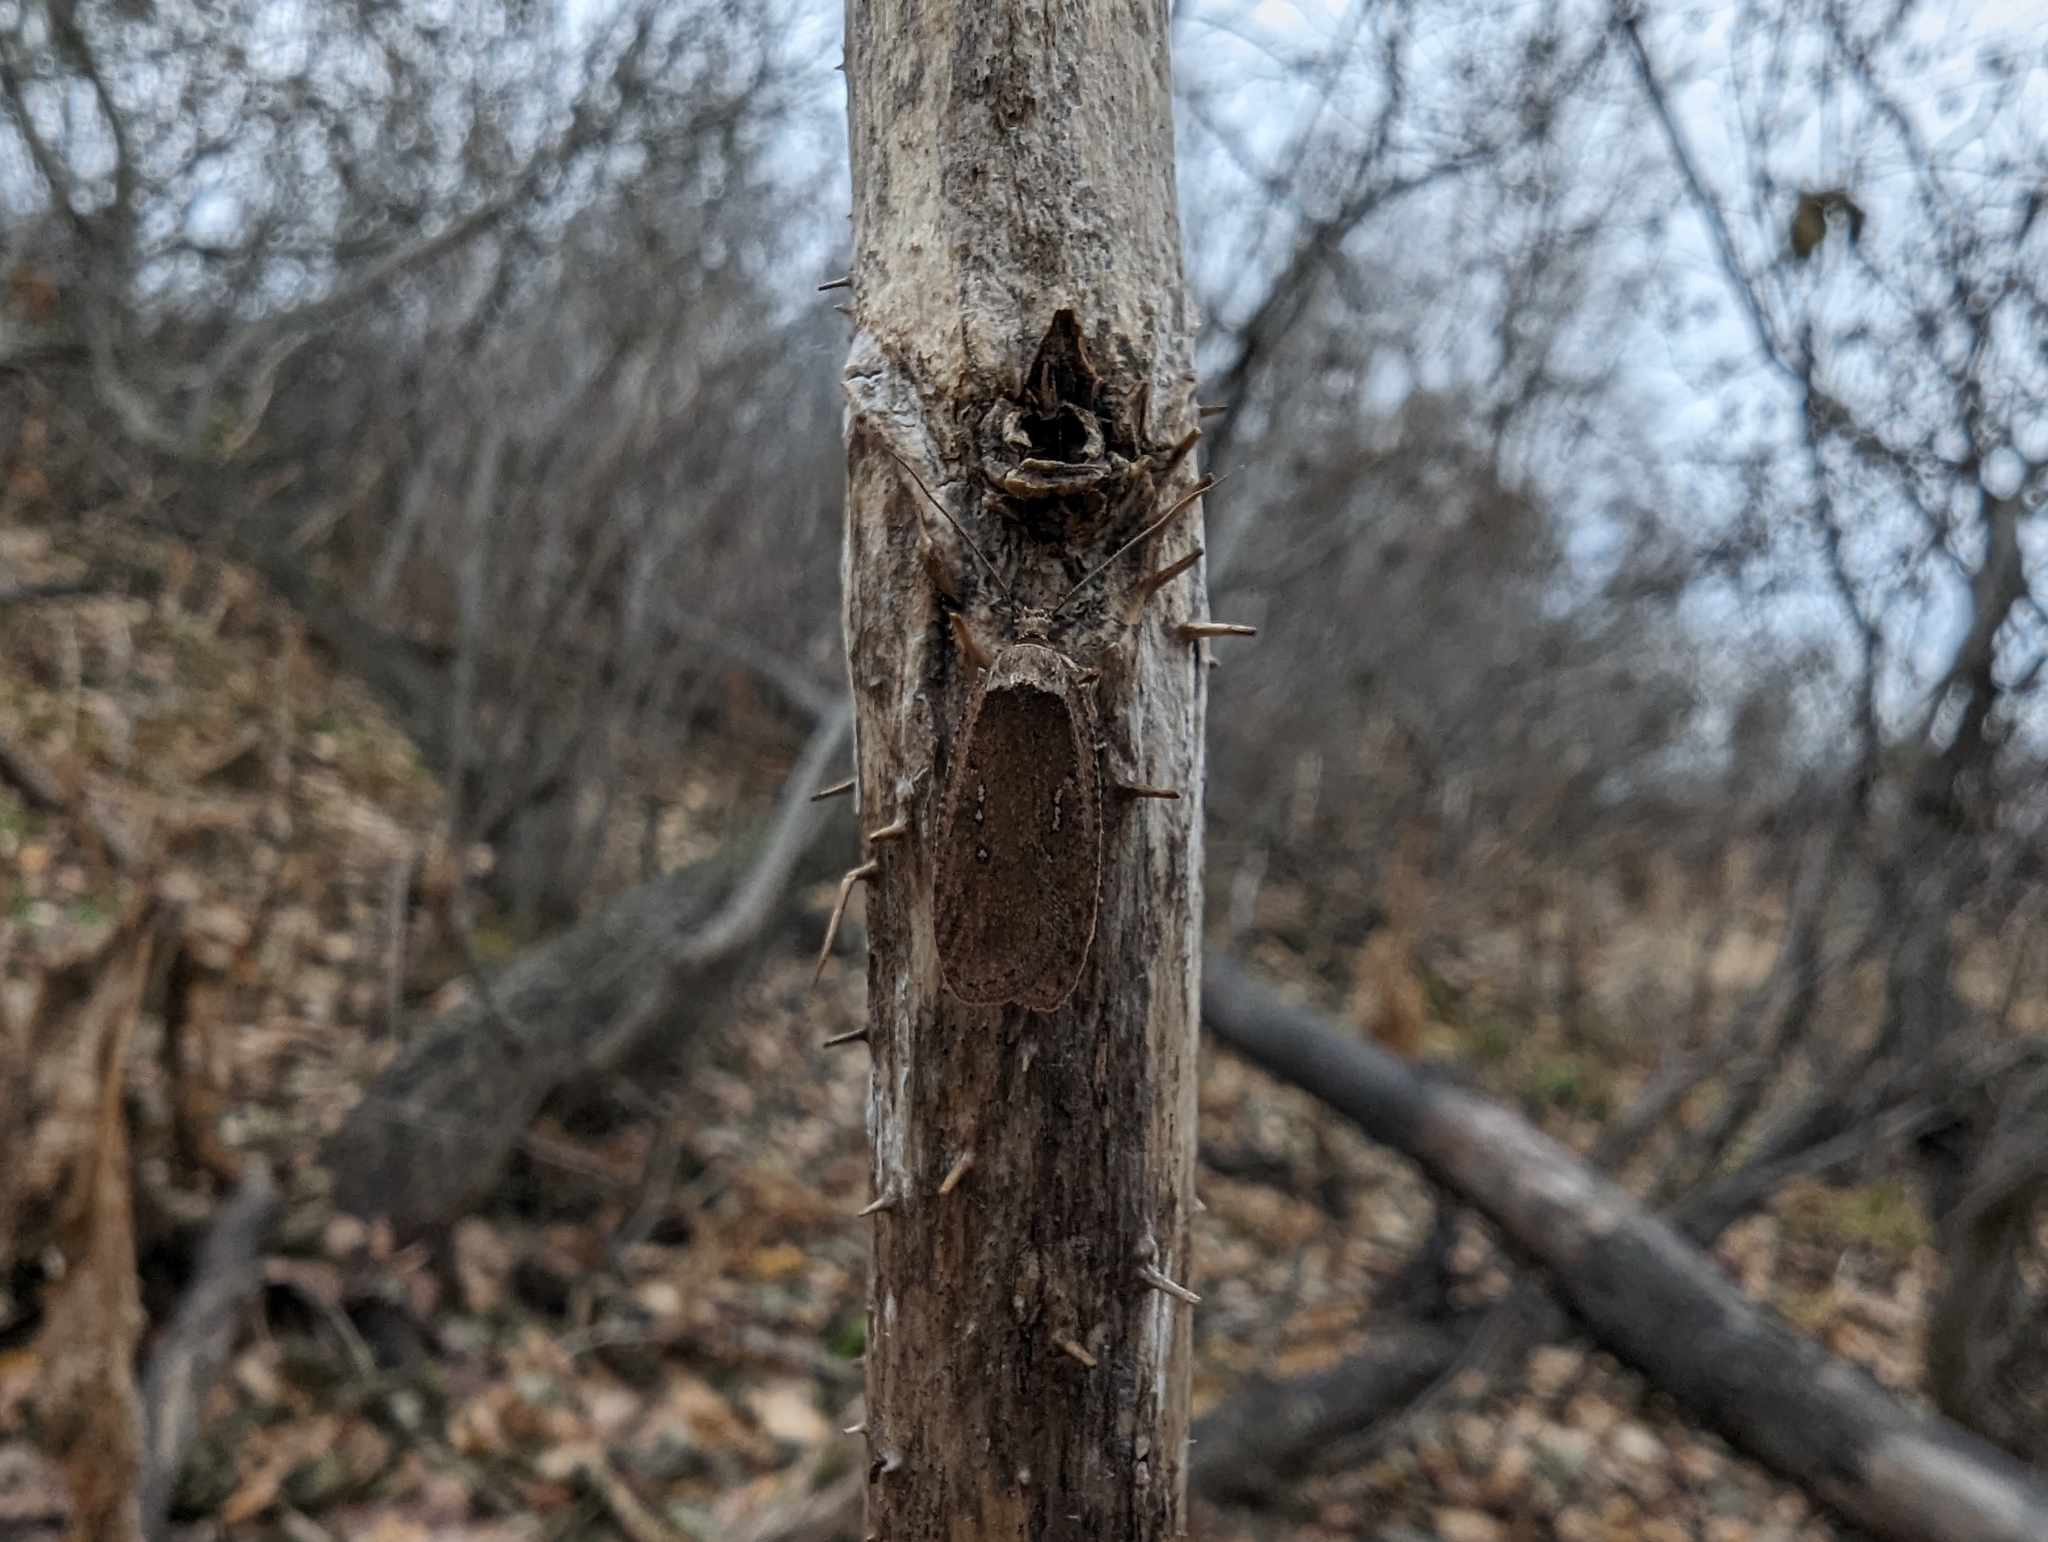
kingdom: Animalia
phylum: Arthropoda
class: Insecta
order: Lepidoptera
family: Depressariidae
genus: Agonopterix
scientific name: Agonopterix rosaciliella
